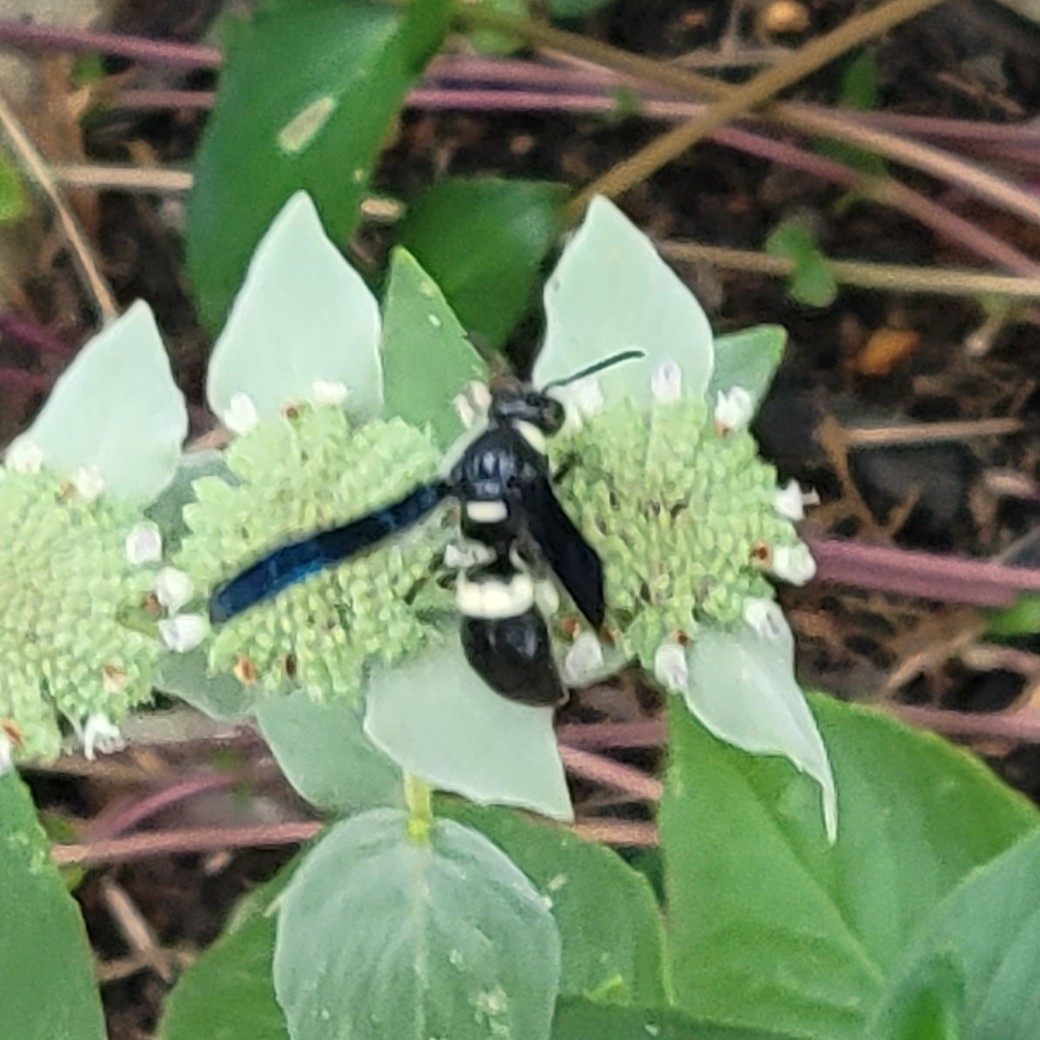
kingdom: Animalia
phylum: Arthropoda
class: Insecta
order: Hymenoptera
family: Eumenidae
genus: Monobia
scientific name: Monobia quadridens
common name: Four-toothed mason wasp
